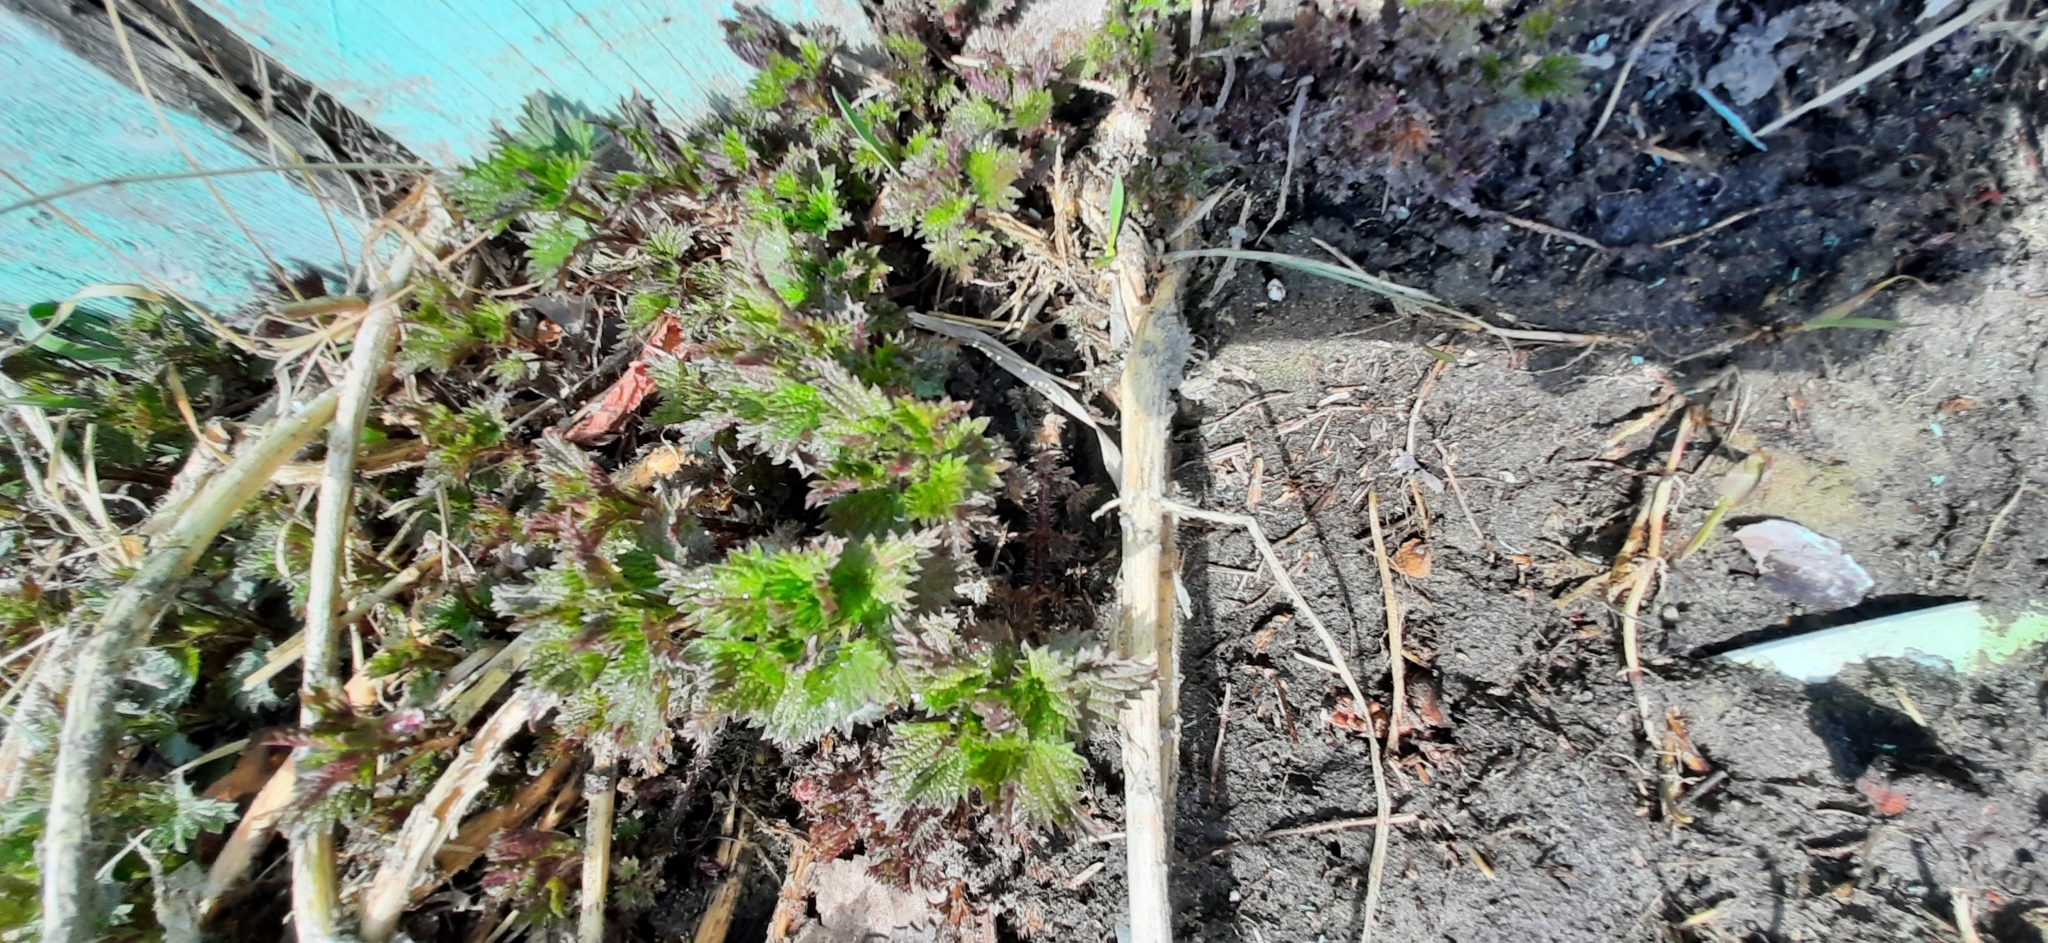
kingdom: Plantae
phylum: Tracheophyta
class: Magnoliopsida
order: Rosales
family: Urticaceae
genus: Urtica
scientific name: Urtica dioica
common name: Common nettle
